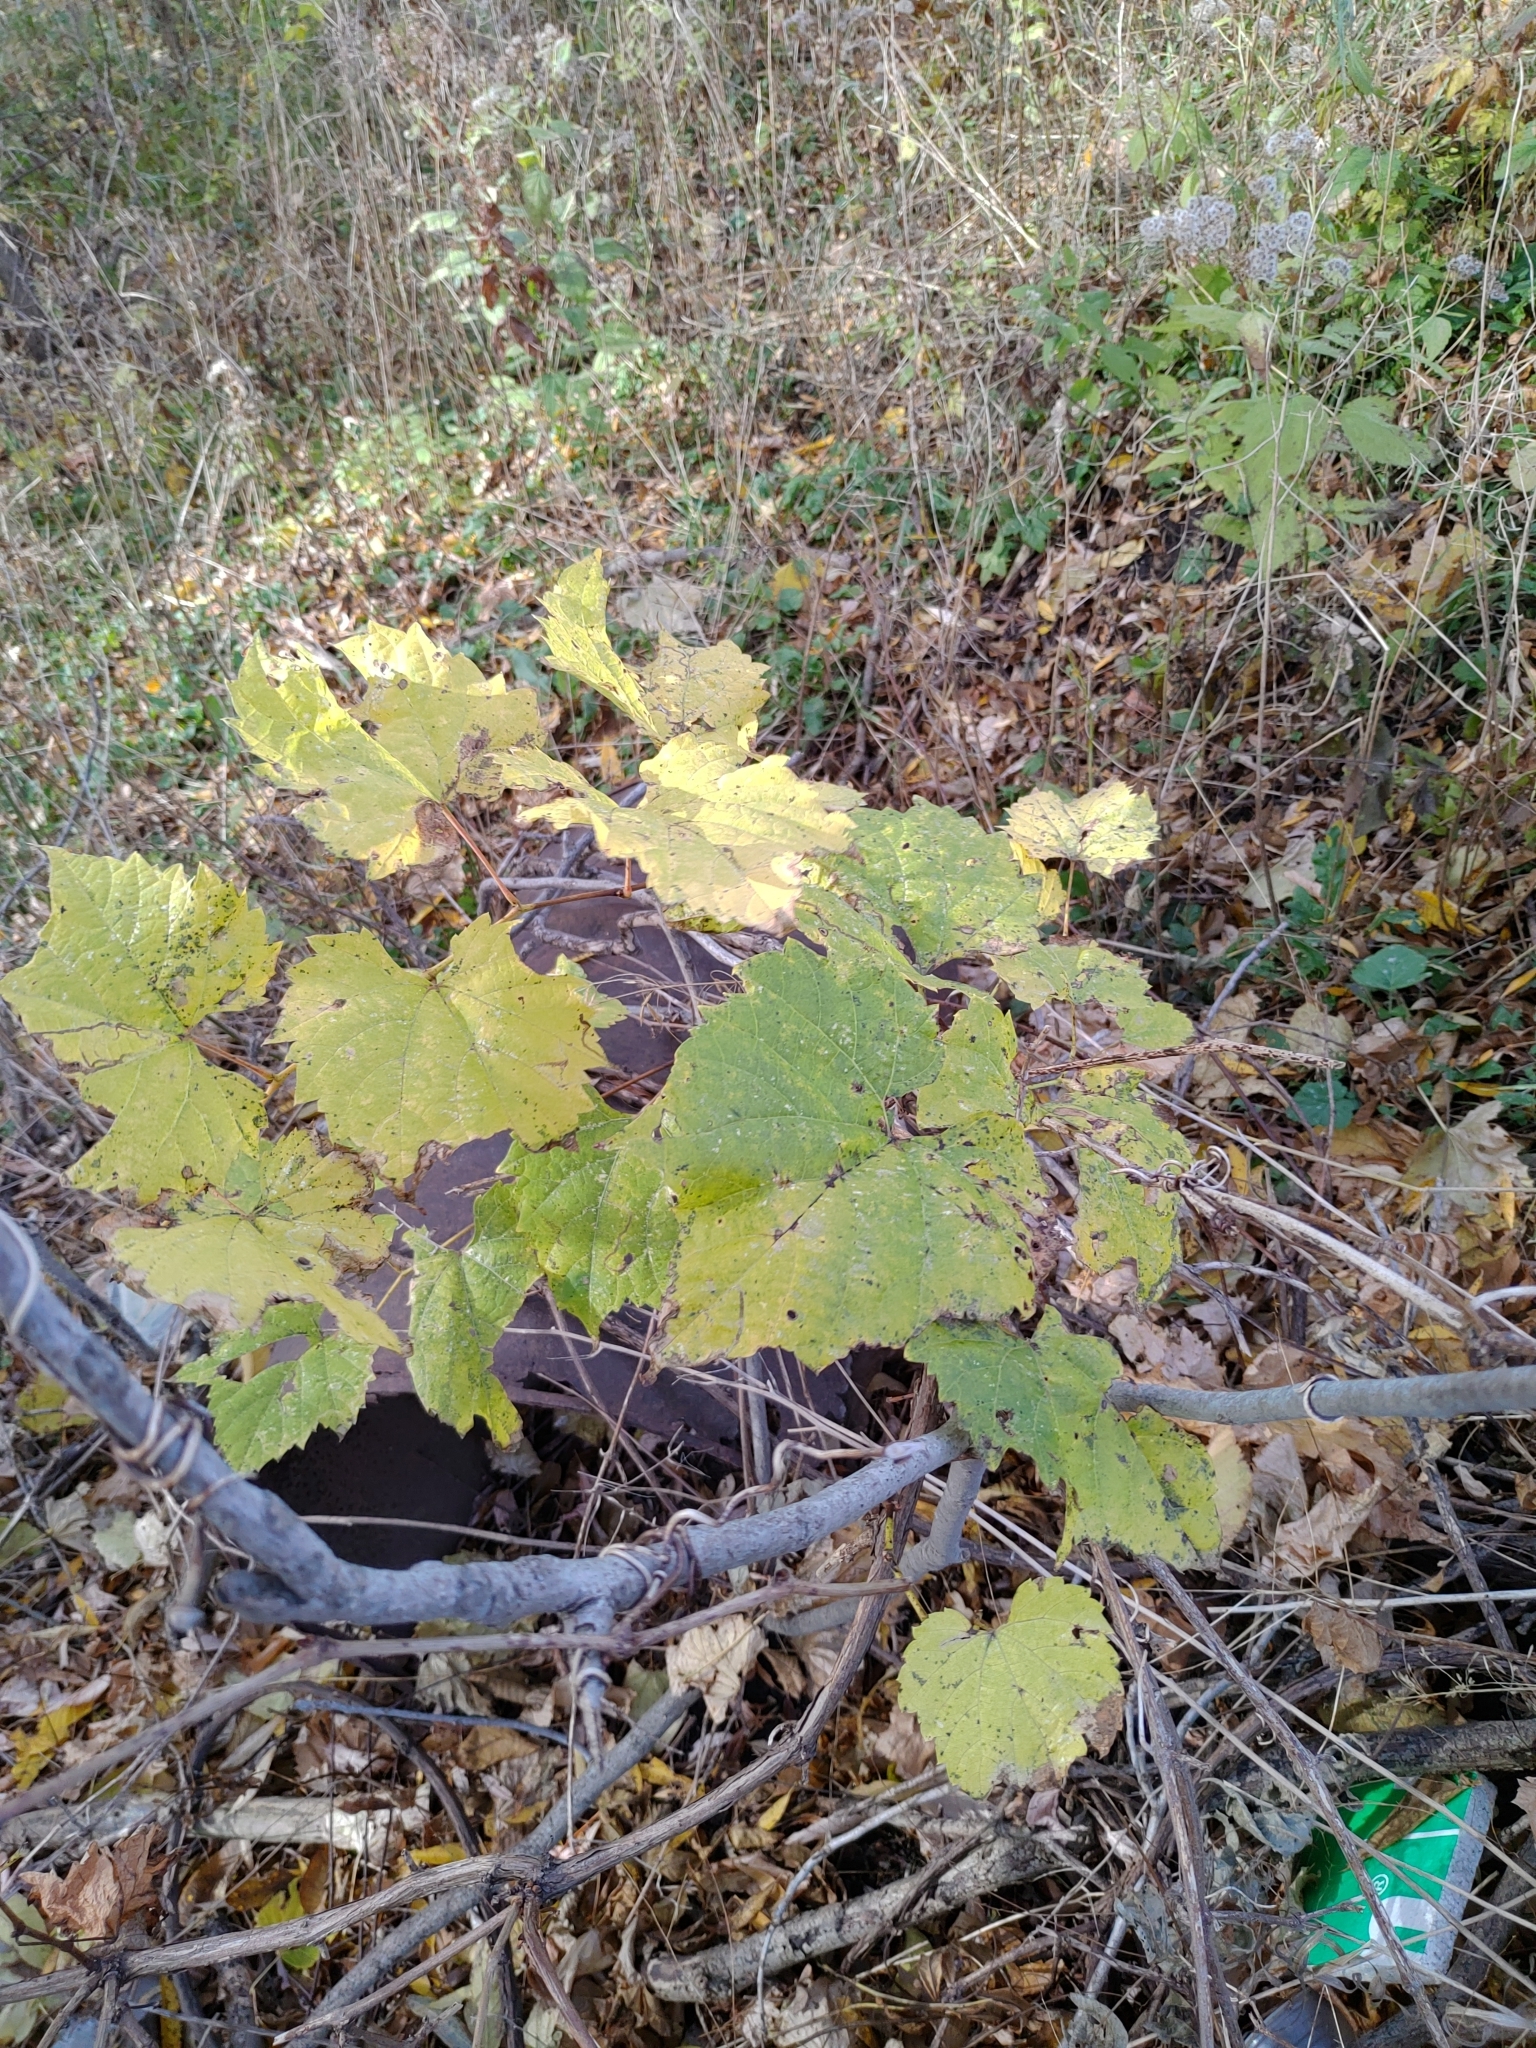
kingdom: Plantae
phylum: Tracheophyta
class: Magnoliopsida
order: Vitales
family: Vitaceae
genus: Vitis
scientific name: Vitis riparia
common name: Frost grape
